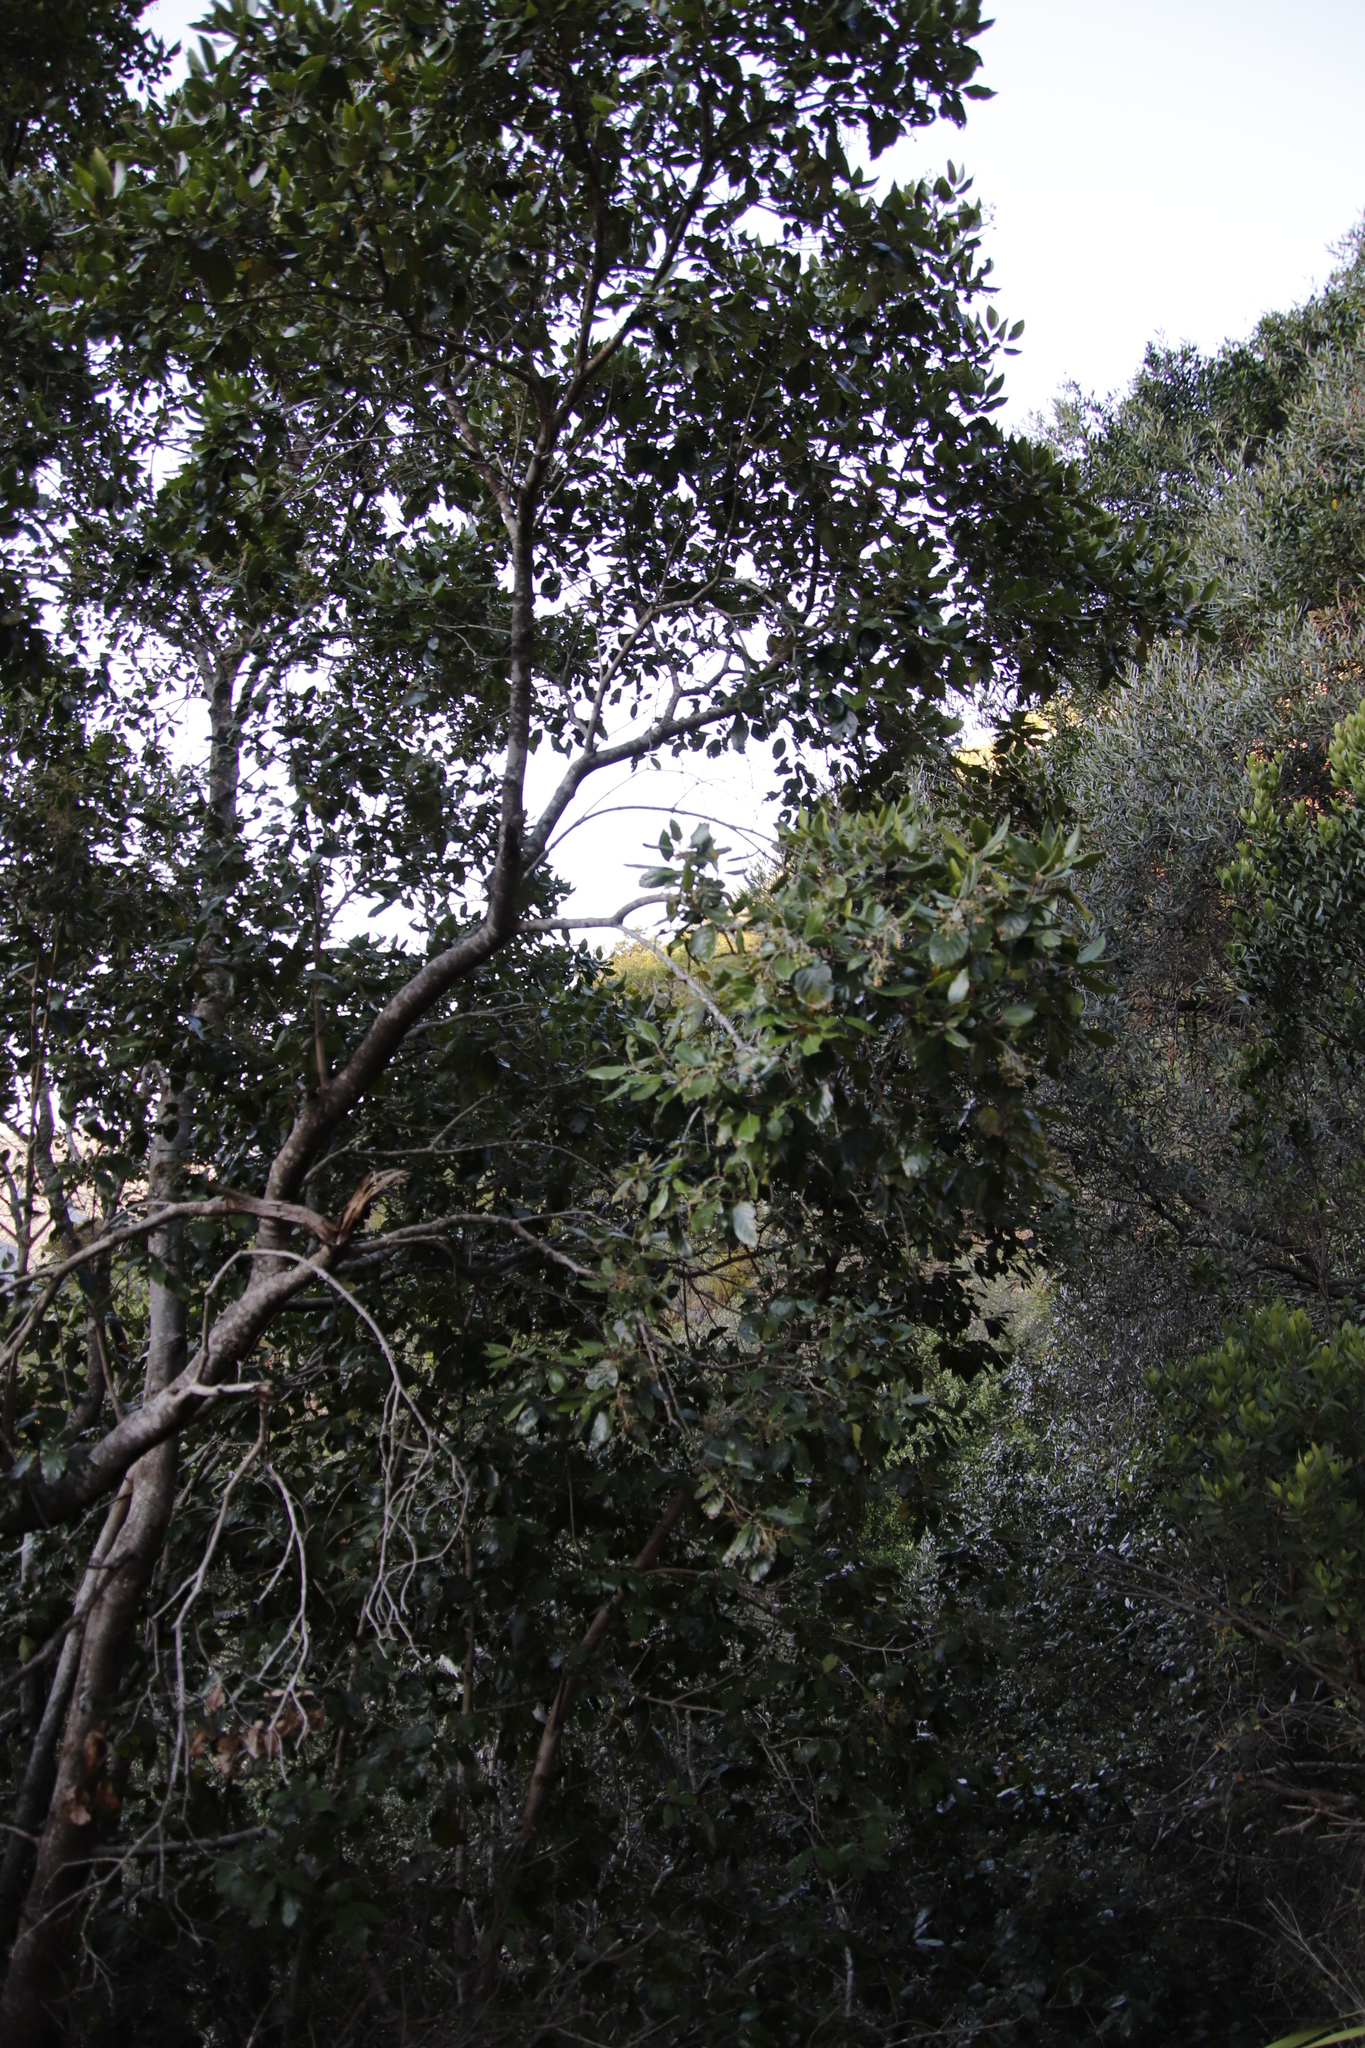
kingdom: Plantae
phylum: Tracheophyta
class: Magnoliopsida
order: Cornales
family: Curtisiaceae
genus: Curtisia
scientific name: Curtisia dentata
